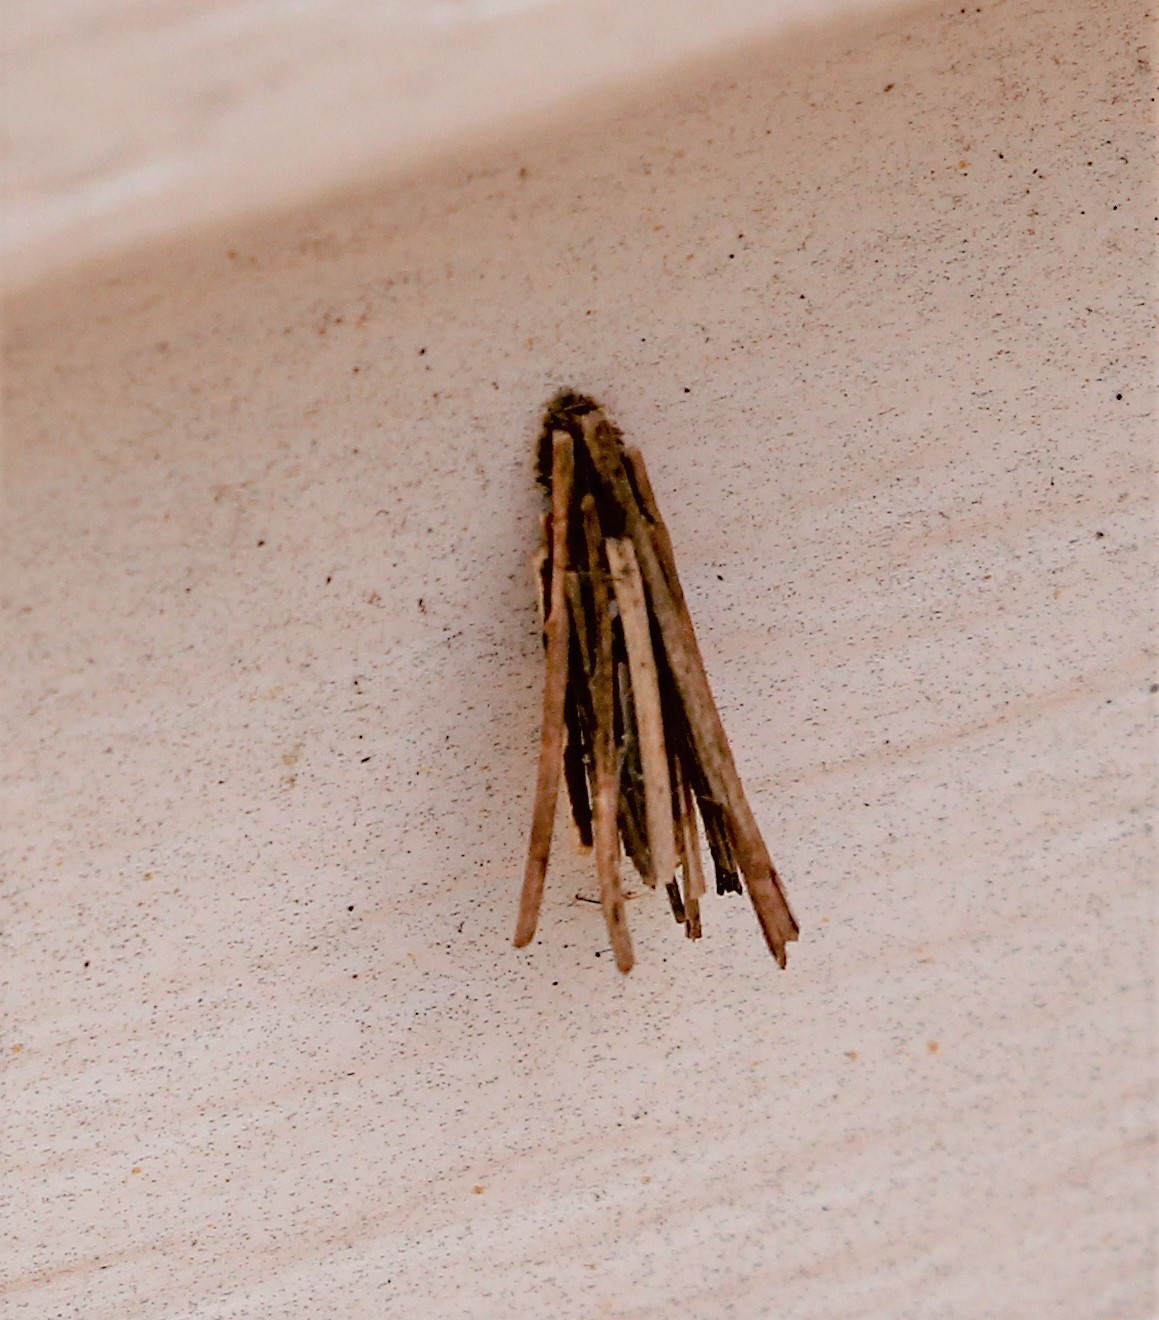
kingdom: Animalia
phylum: Arthropoda
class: Insecta
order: Lepidoptera
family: Psychidae
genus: Psyche
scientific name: Psyche casta
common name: Common sweep
